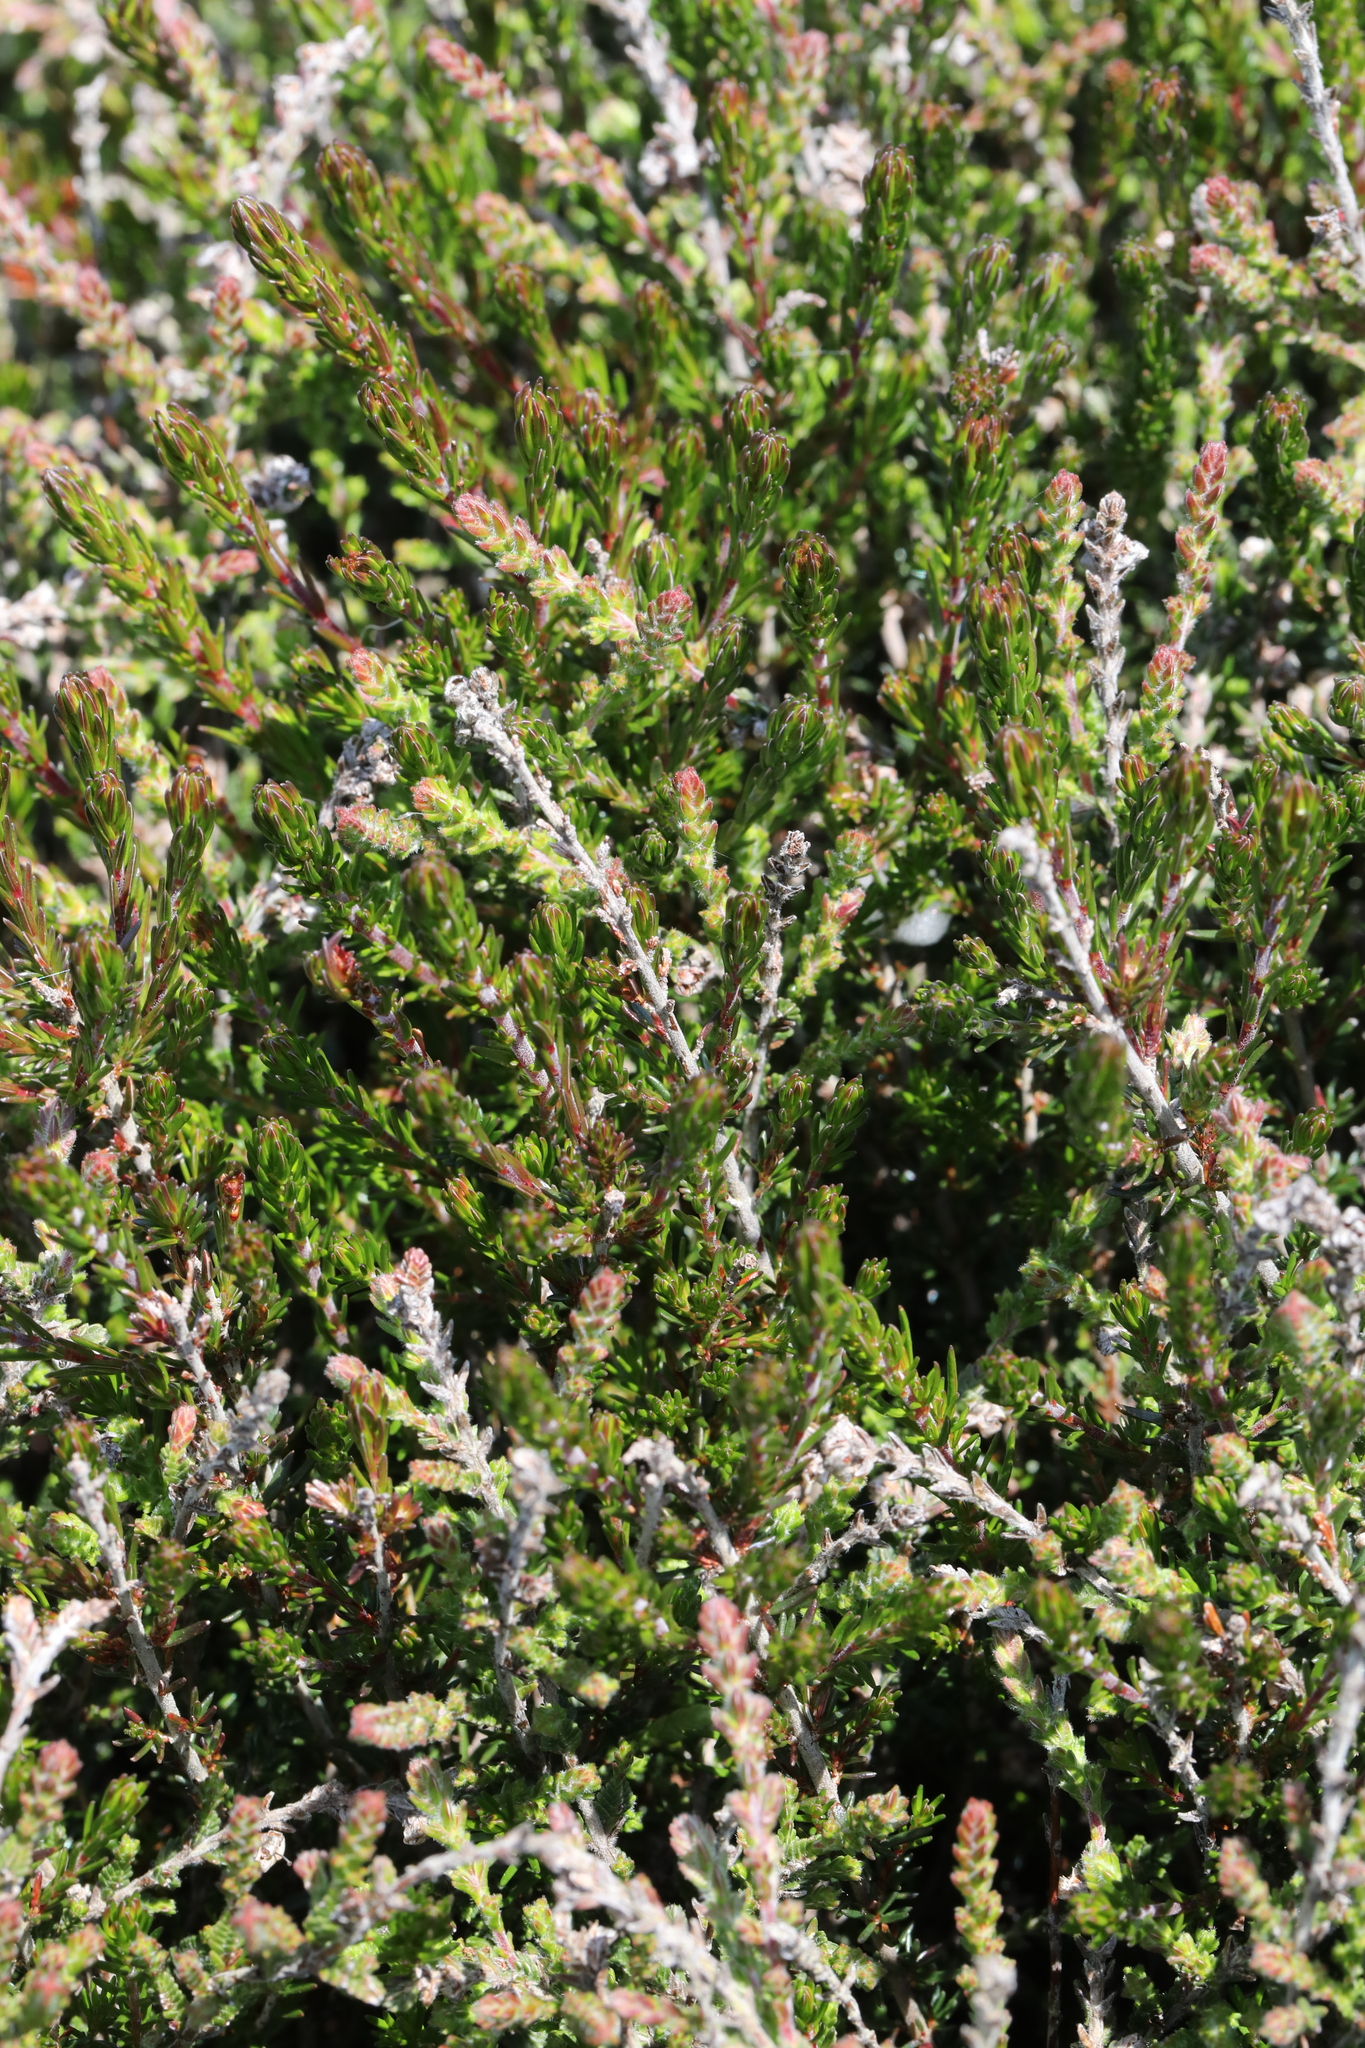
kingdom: Plantae
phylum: Tracheophyta
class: Magnoliopsida
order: Ericales
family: Ericaceae
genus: Calluna
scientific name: Calluna vulgaris
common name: Heather
